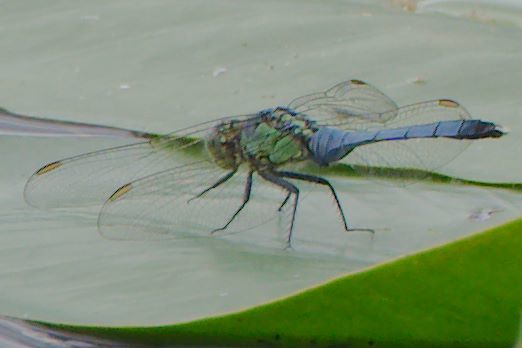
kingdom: Animalia
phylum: Arthropoda
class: Insecta
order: Odonata
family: Libellulidae
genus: Erythemis
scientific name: Erythemis simplicicollis
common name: Eastern pondhawk
